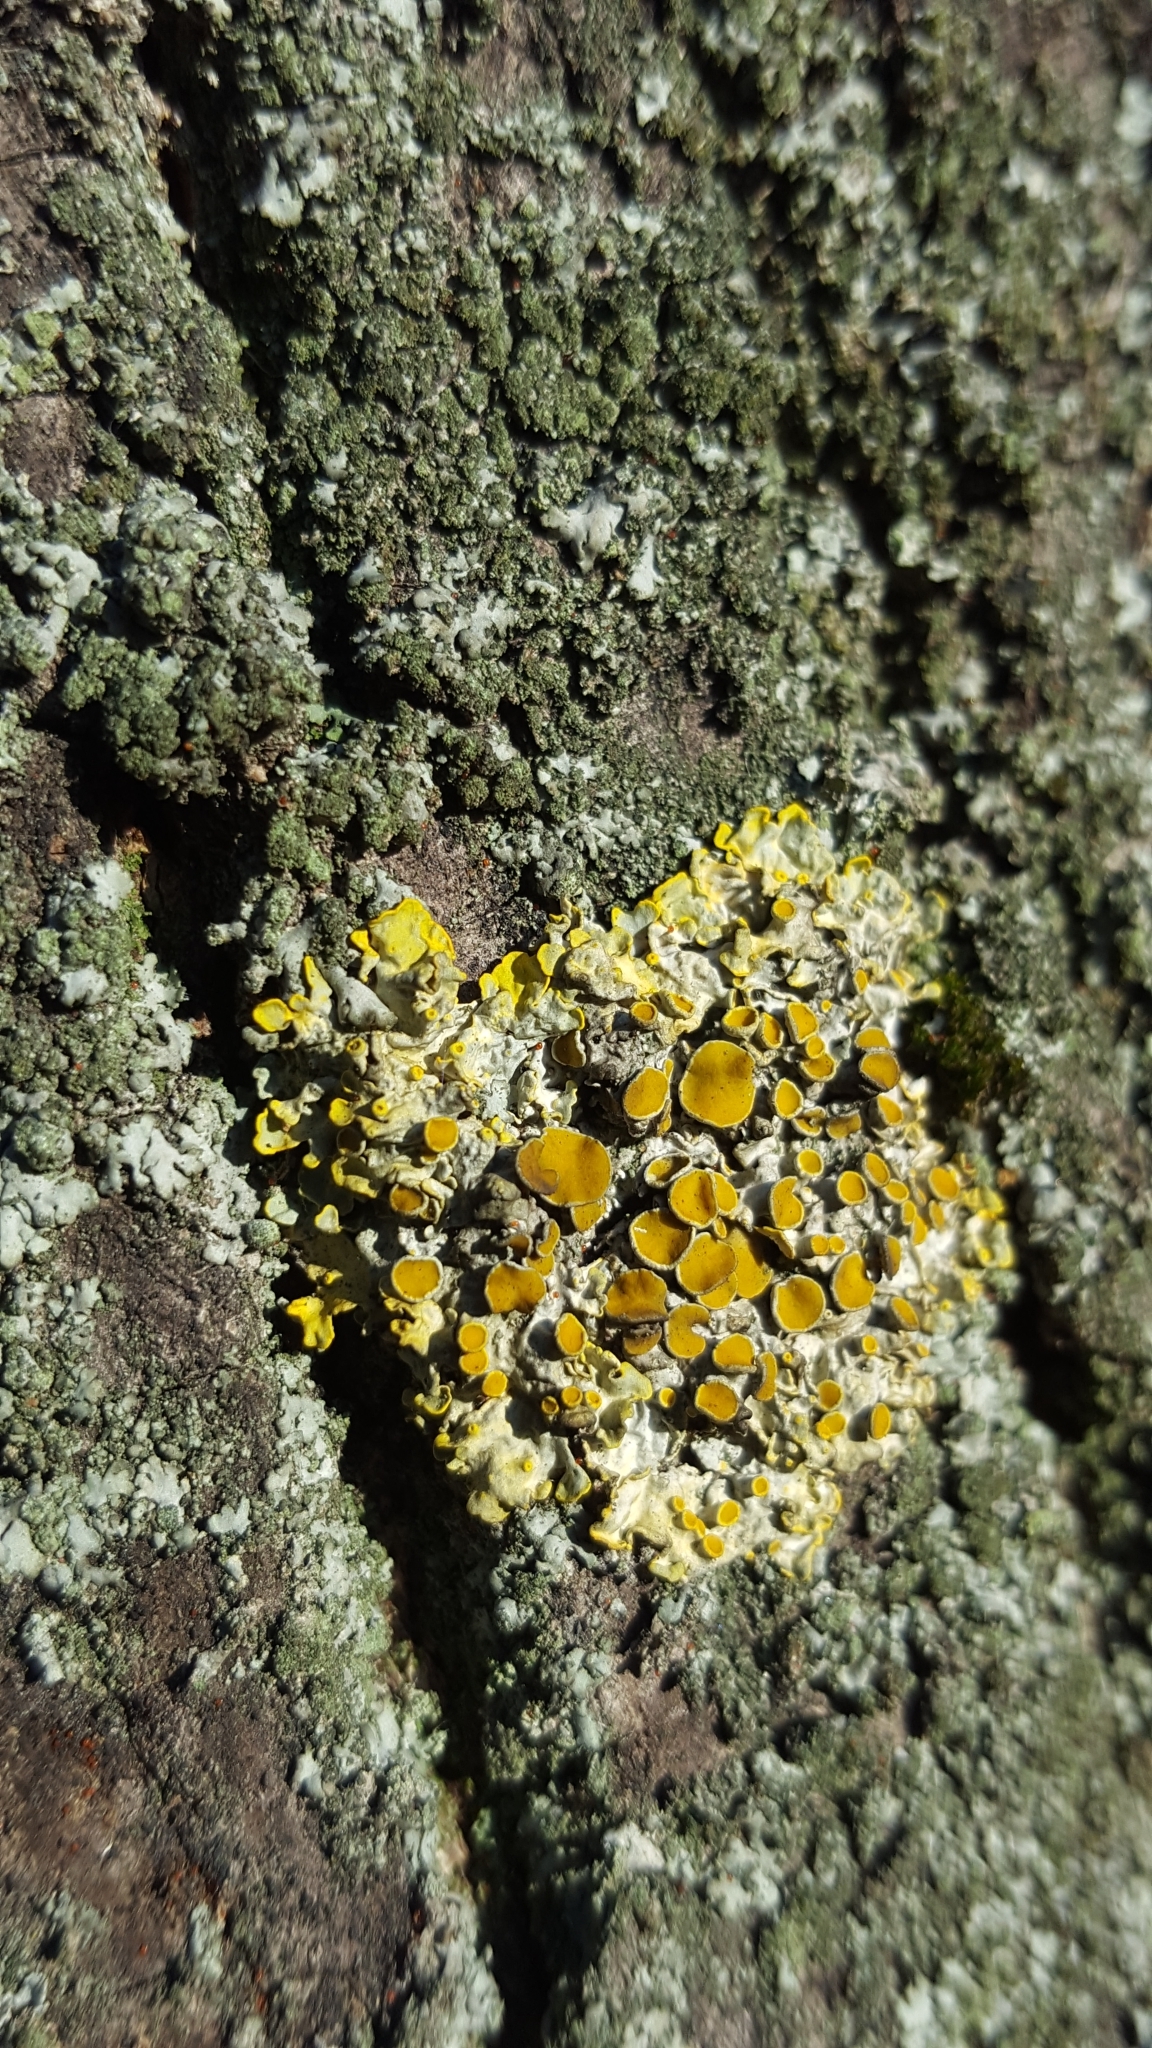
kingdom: Fungi
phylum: Ascomycota
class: Lecanoromycetes
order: Teloschistales
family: Teloschistaceae
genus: Xanthoria
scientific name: Xanthoria parietina
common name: Common orange lichen
